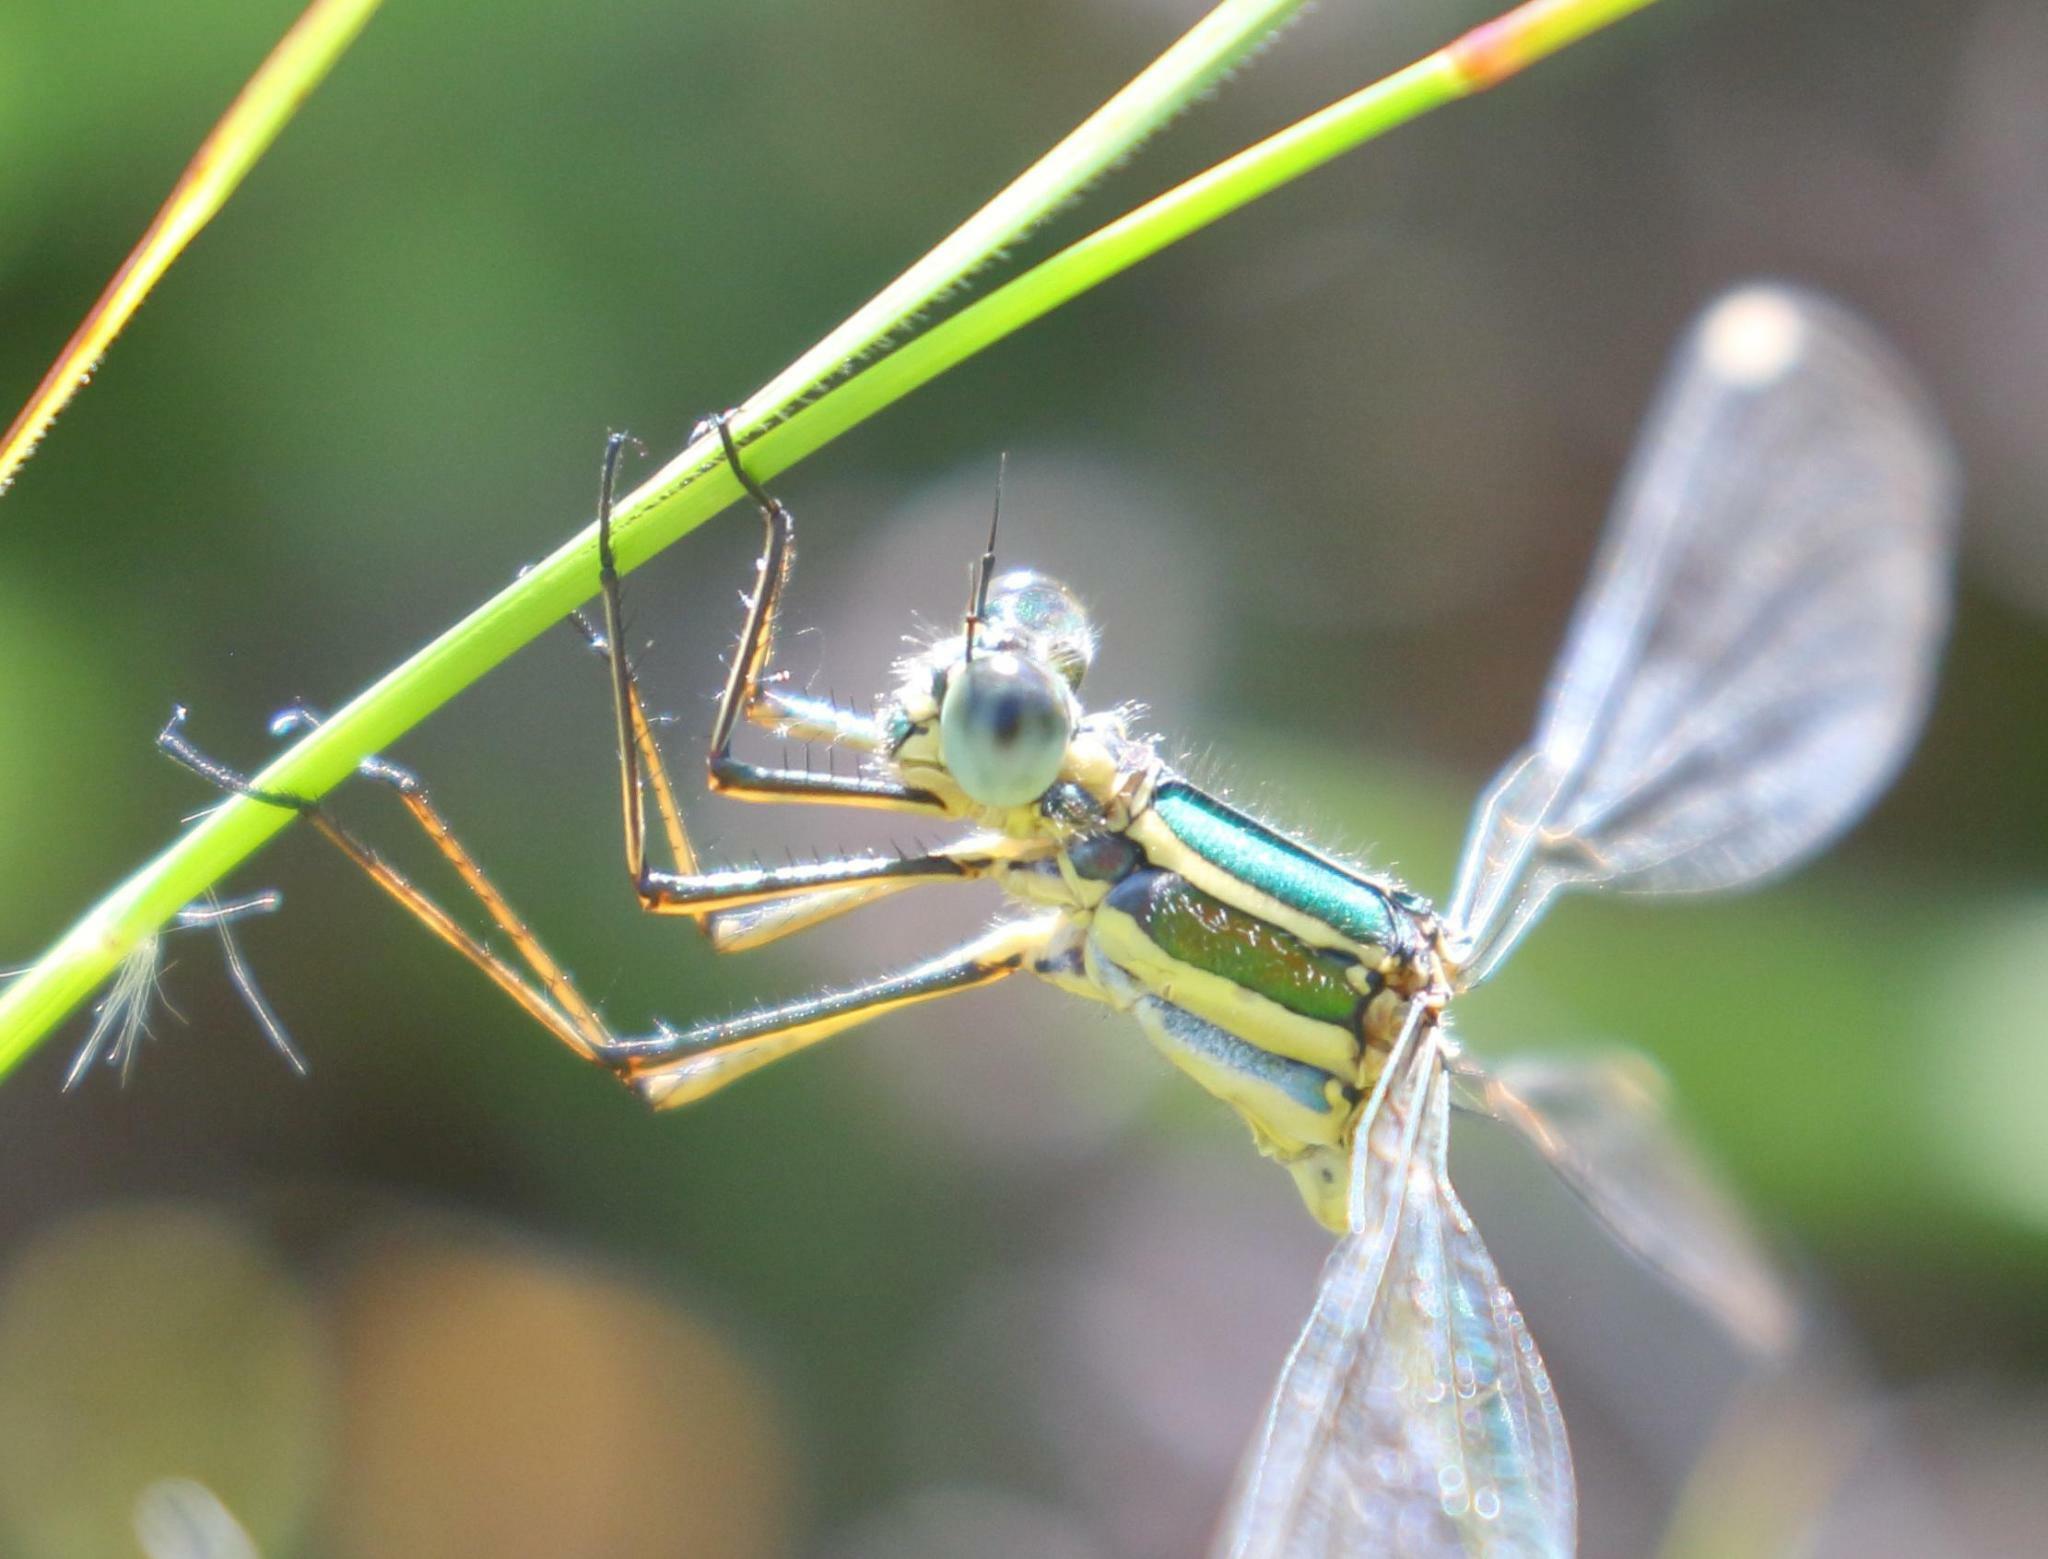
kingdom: Animalia
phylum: Arthropoda
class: Insecta
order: Odonata
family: Synlestidae
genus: Chlorolestes
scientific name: Chlorolestes fasciatus
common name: Mountain malachite
